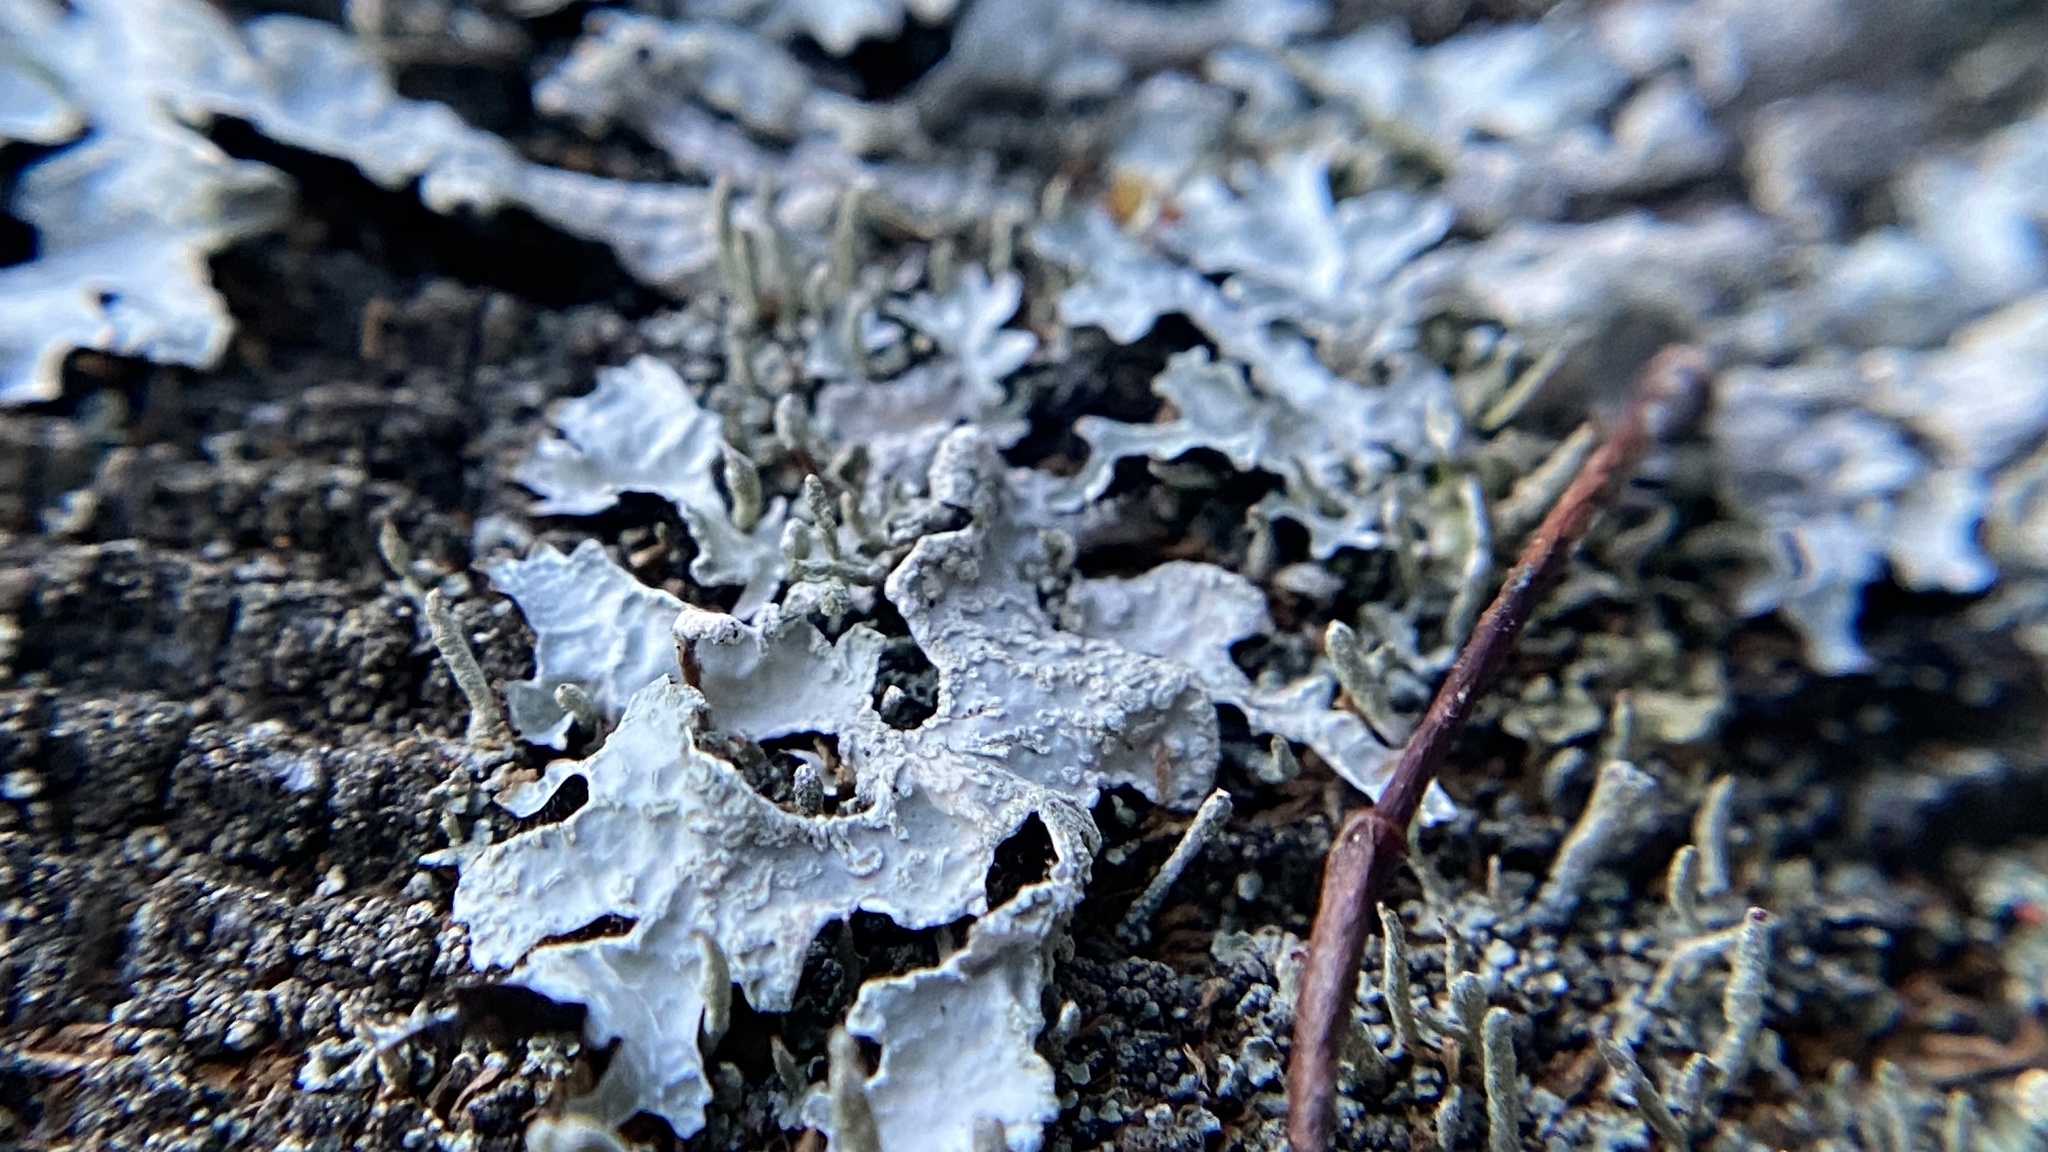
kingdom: Fungi
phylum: Ascomycota
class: Lecanoromycetes
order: Lecanorales
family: Parmeliaceae
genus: Parmelia
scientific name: Parmelia sulcata
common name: Netted shield lichen
